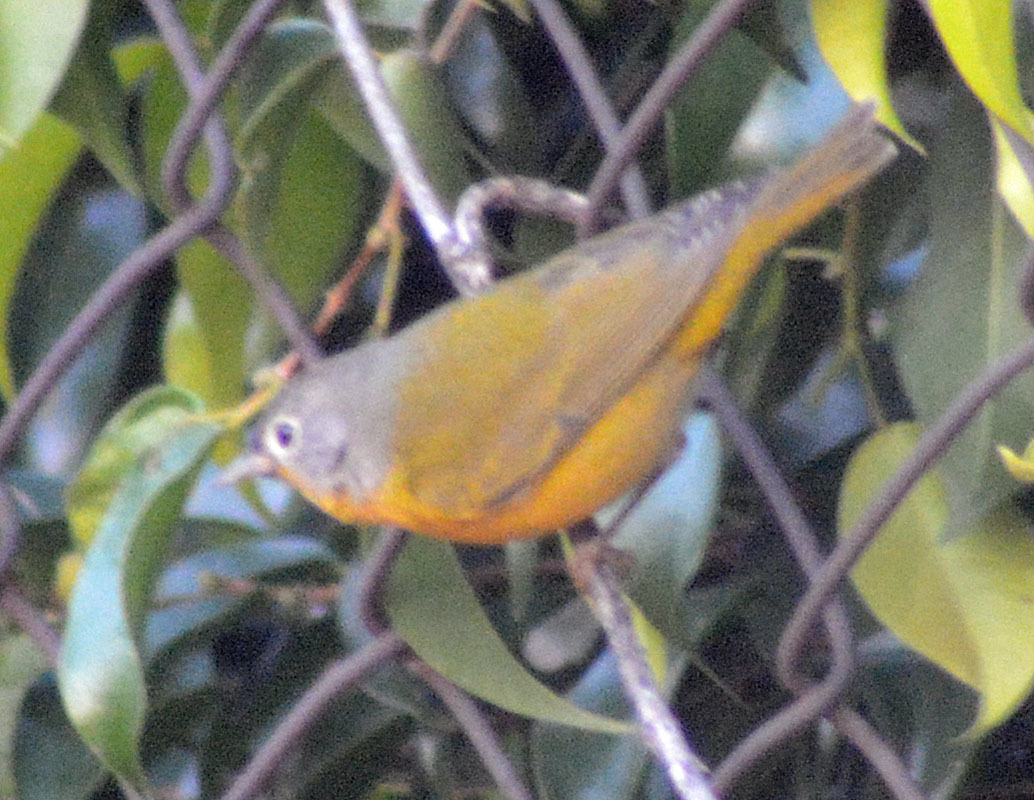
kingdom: Animalia
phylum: Chordata
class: Aves
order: Passeriformes
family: Parulidae
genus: Leiothlypis
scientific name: Leiothlypis ruficapilla
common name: Nashville warbler
